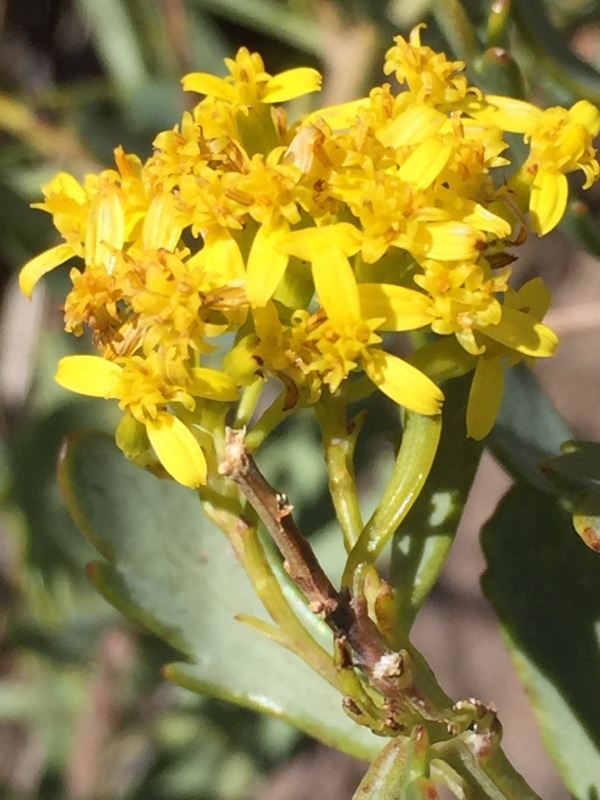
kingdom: Plantae
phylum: Tracheophyta
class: Magnoliopsida
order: Asterales
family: Asteraceae
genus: Bethencourtia
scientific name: Bethencourtia palmensis
